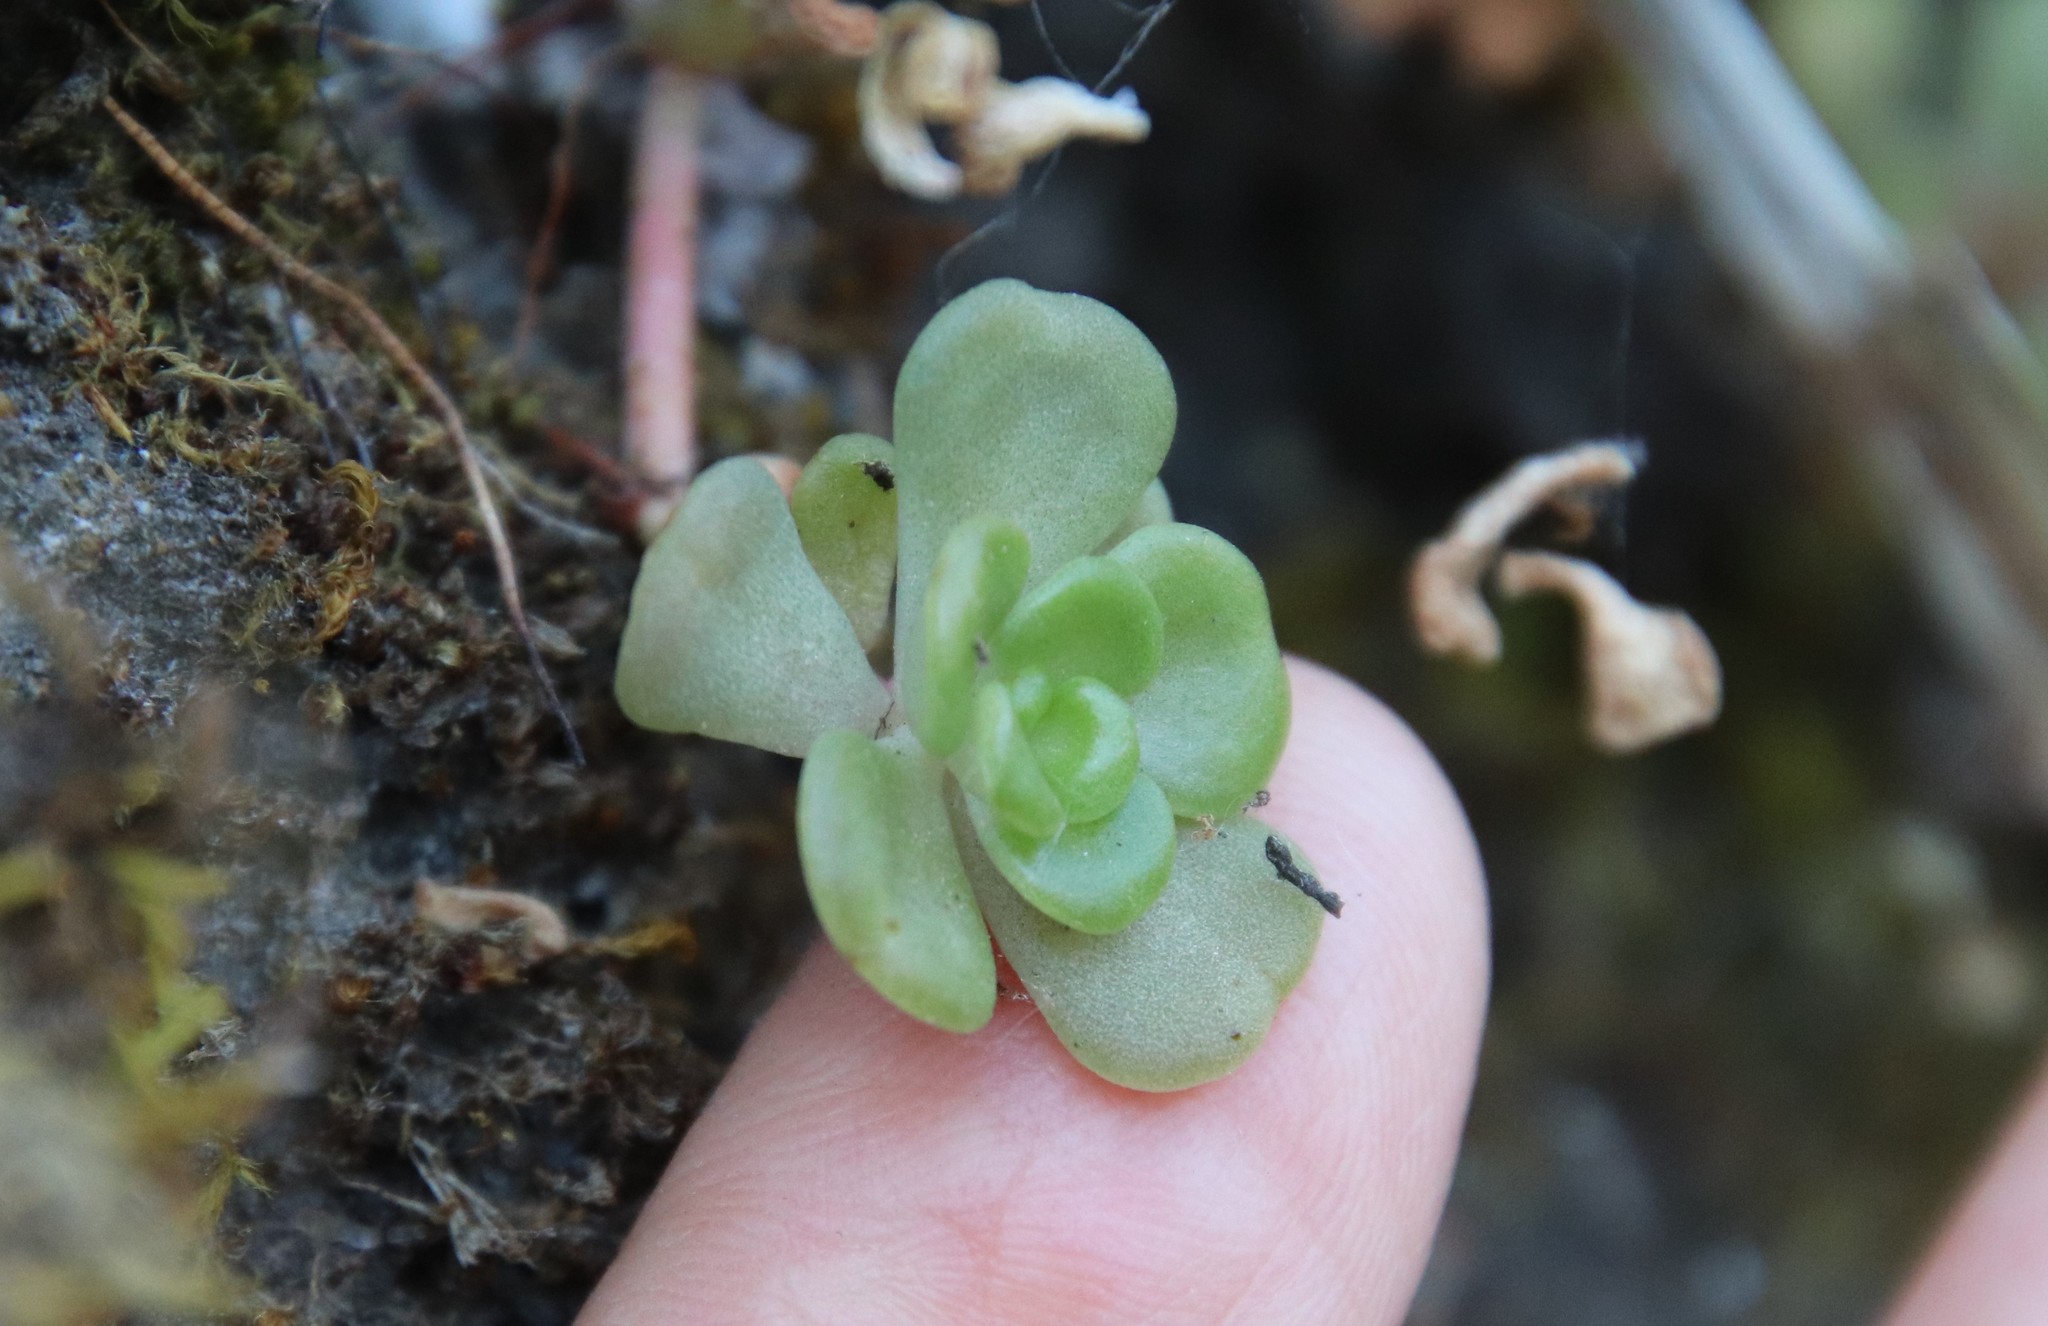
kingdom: Plantae
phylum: Tracheophyta
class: Magnoliopsida
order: Saxifragales
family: Crassulaceae
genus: Sedum
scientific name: Sedum oreganum
